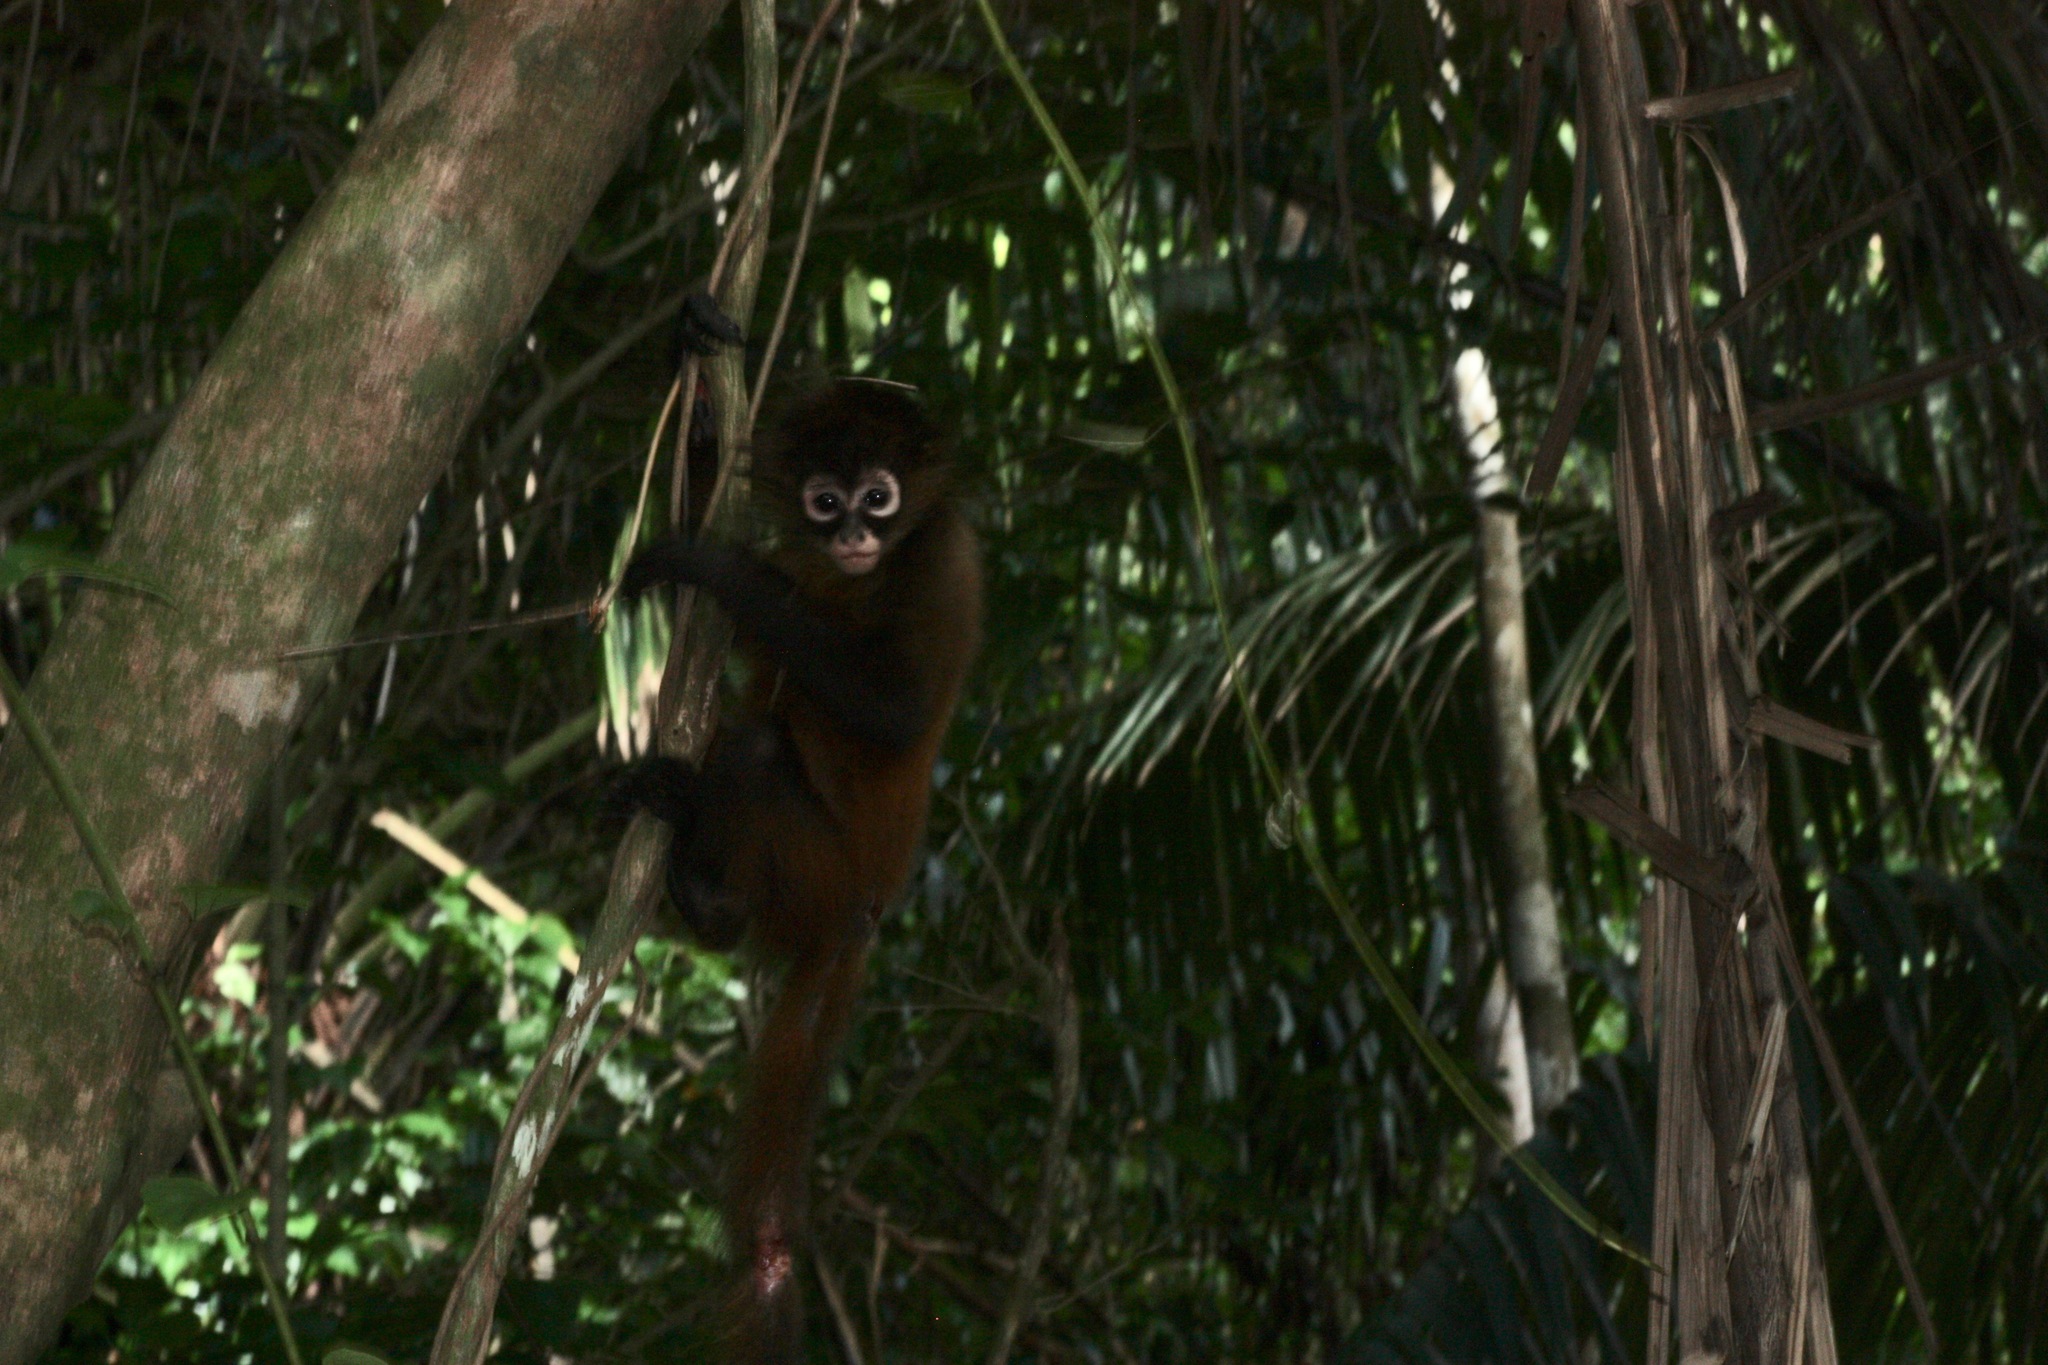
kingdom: Animalia
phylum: Chordata
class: Mammalia
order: Primates
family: Atelidae
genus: Ateles
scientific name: Ateles geoffroyi
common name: Black-handed spider monkey
